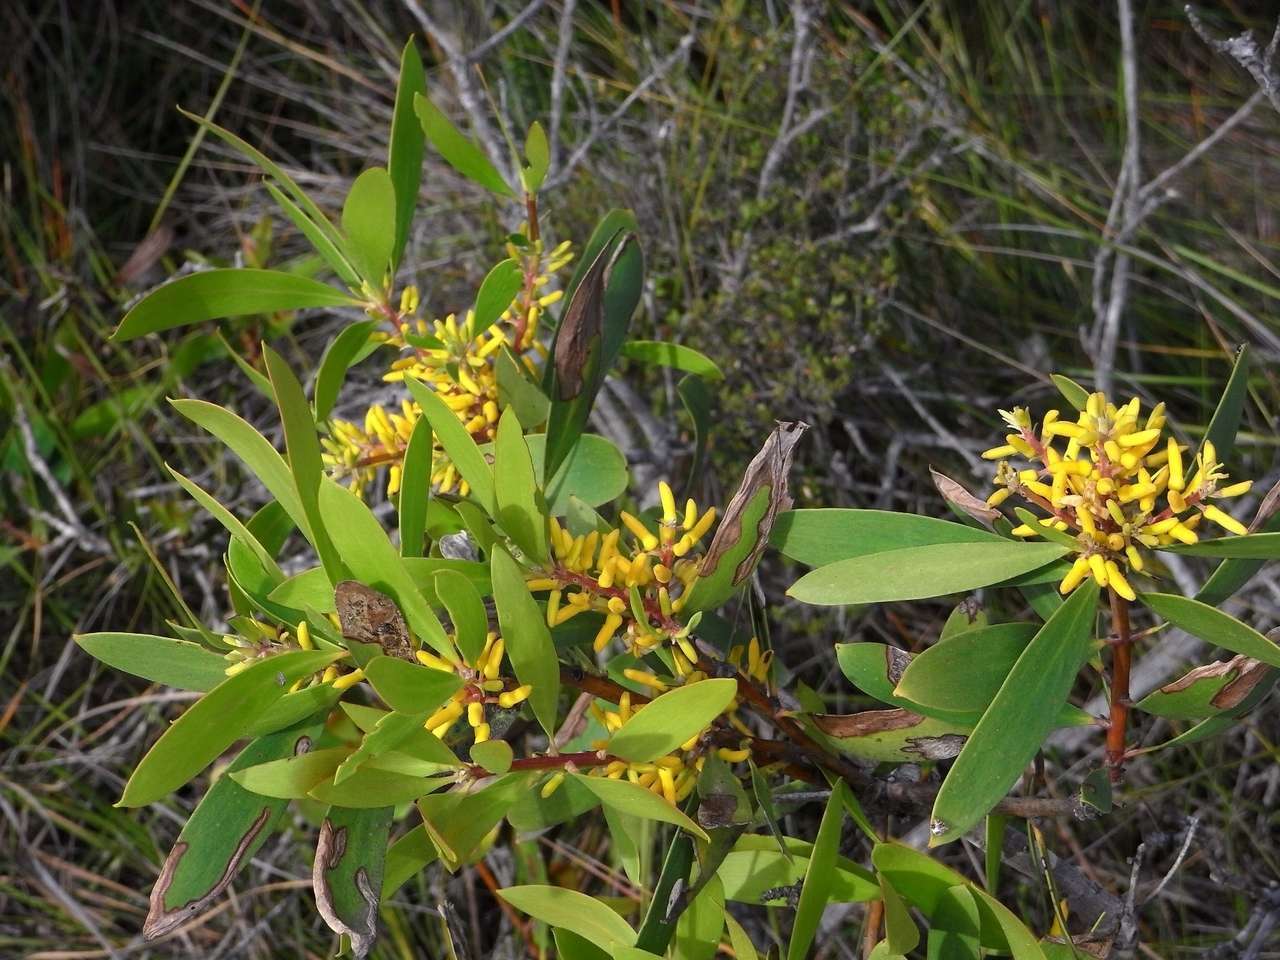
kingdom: Plantae
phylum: Tracheophyta
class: Magnoliopsida
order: Proteales
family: Proteaceae
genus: Persoonia
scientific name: Persoonia levis
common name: Smooth geebung
